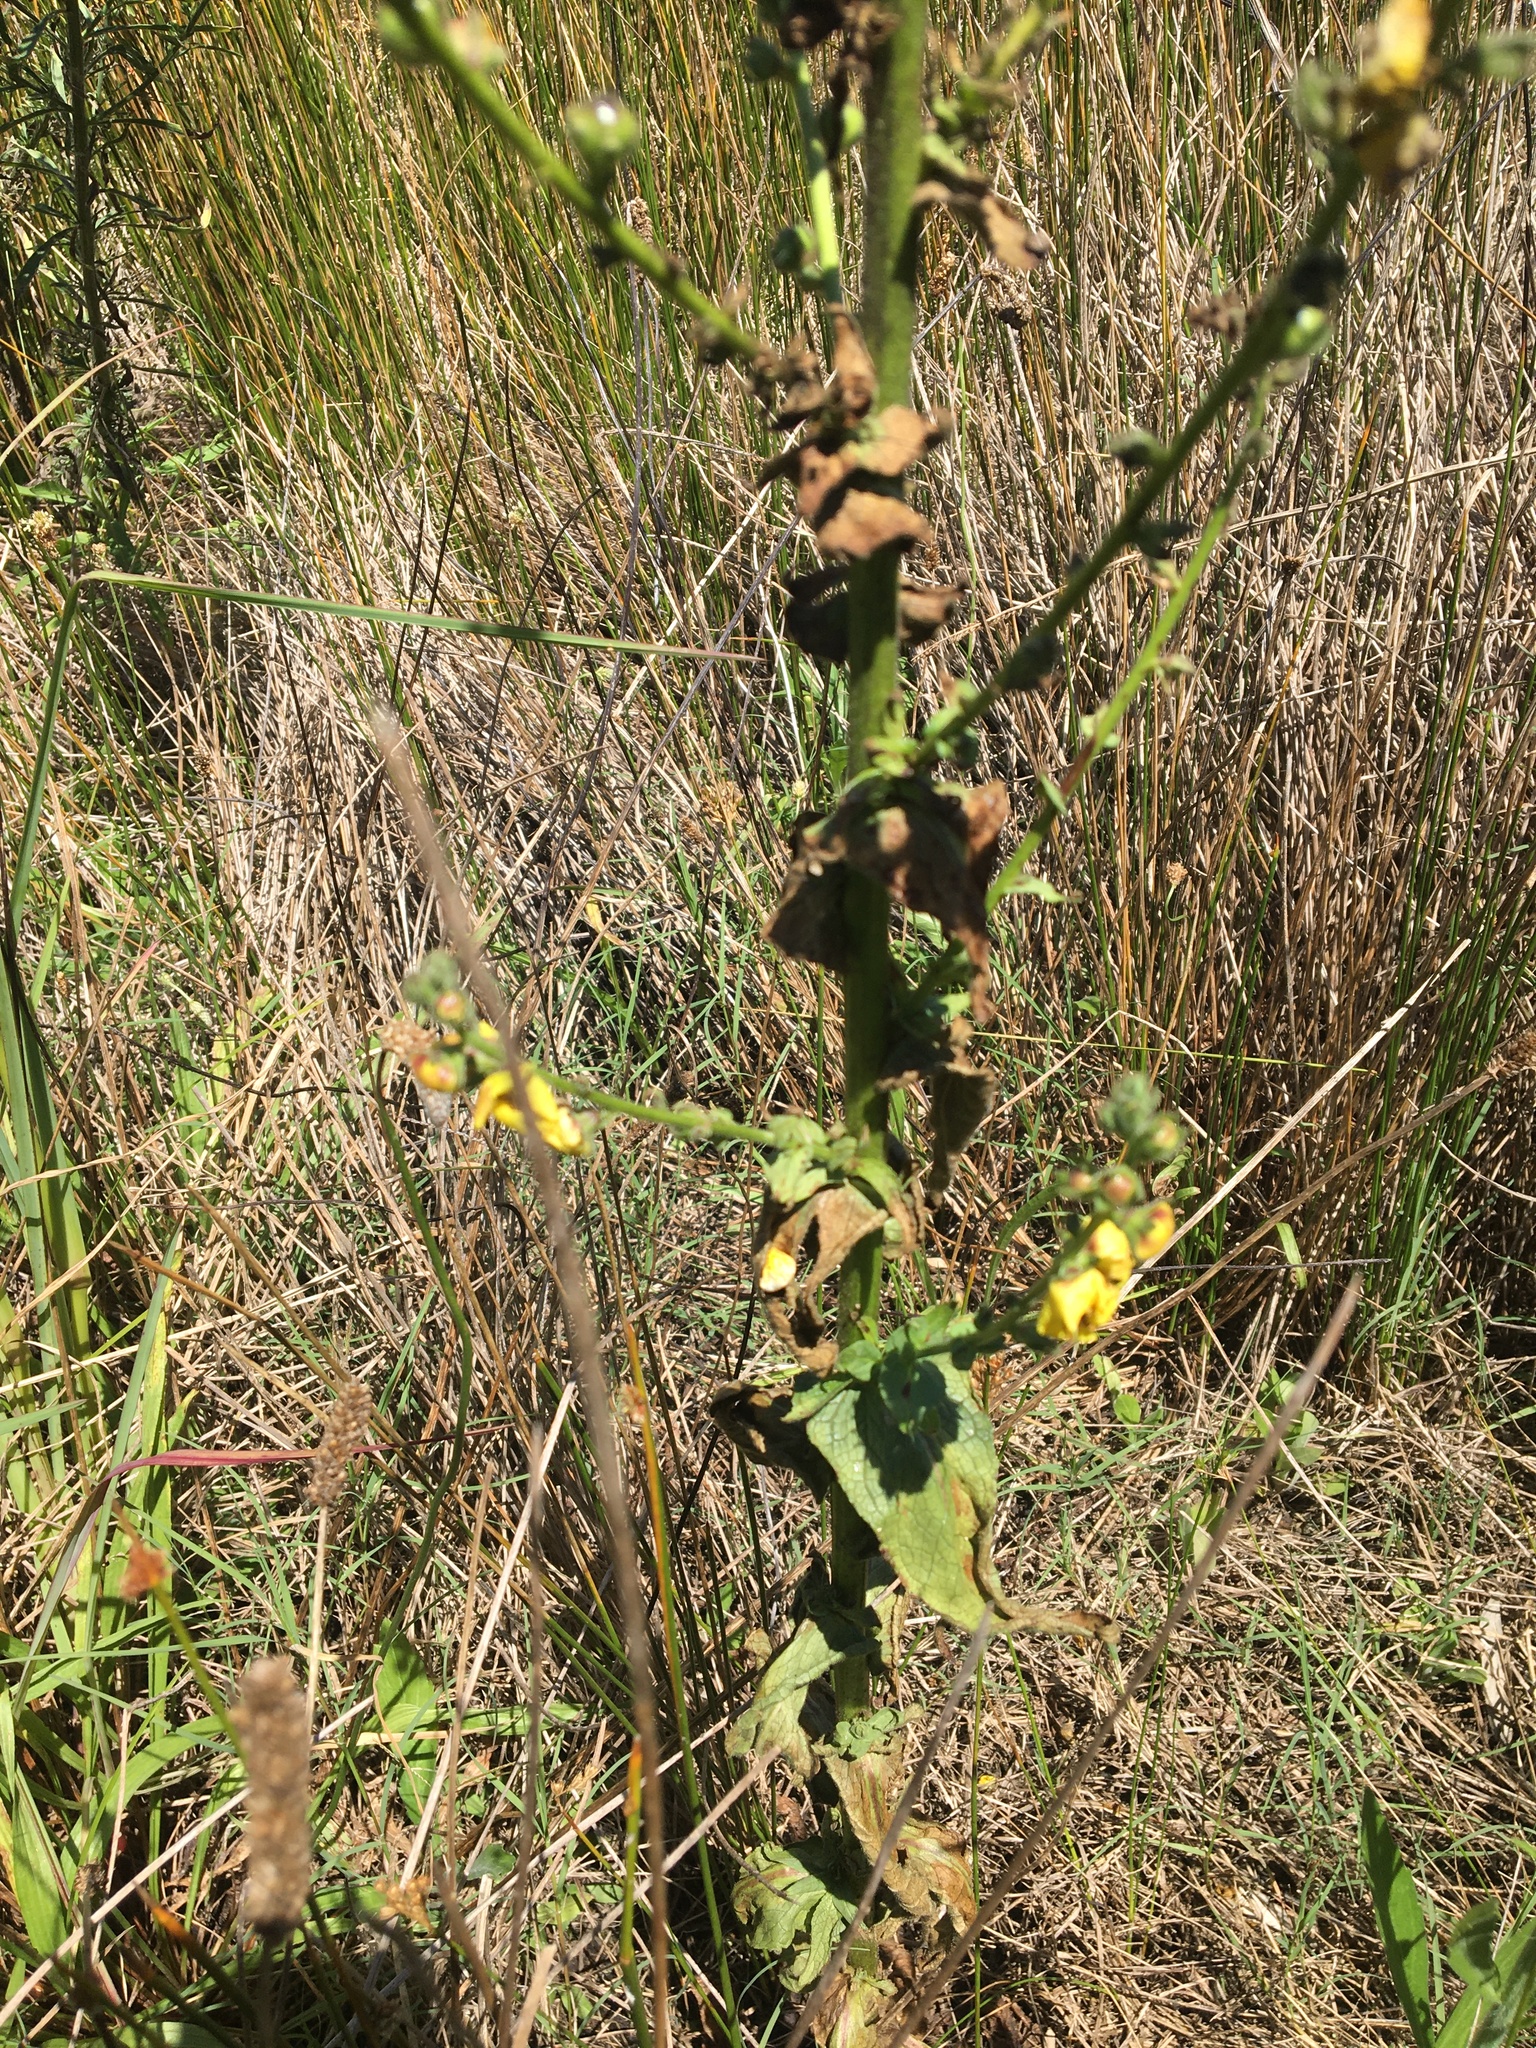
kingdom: Plantae
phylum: Tracheophyta
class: Magnoliopsida
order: Lamiales
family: Scrophulariaceae
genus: Verbascum
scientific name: Verbascum virgatum
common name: Twiggy mullein
